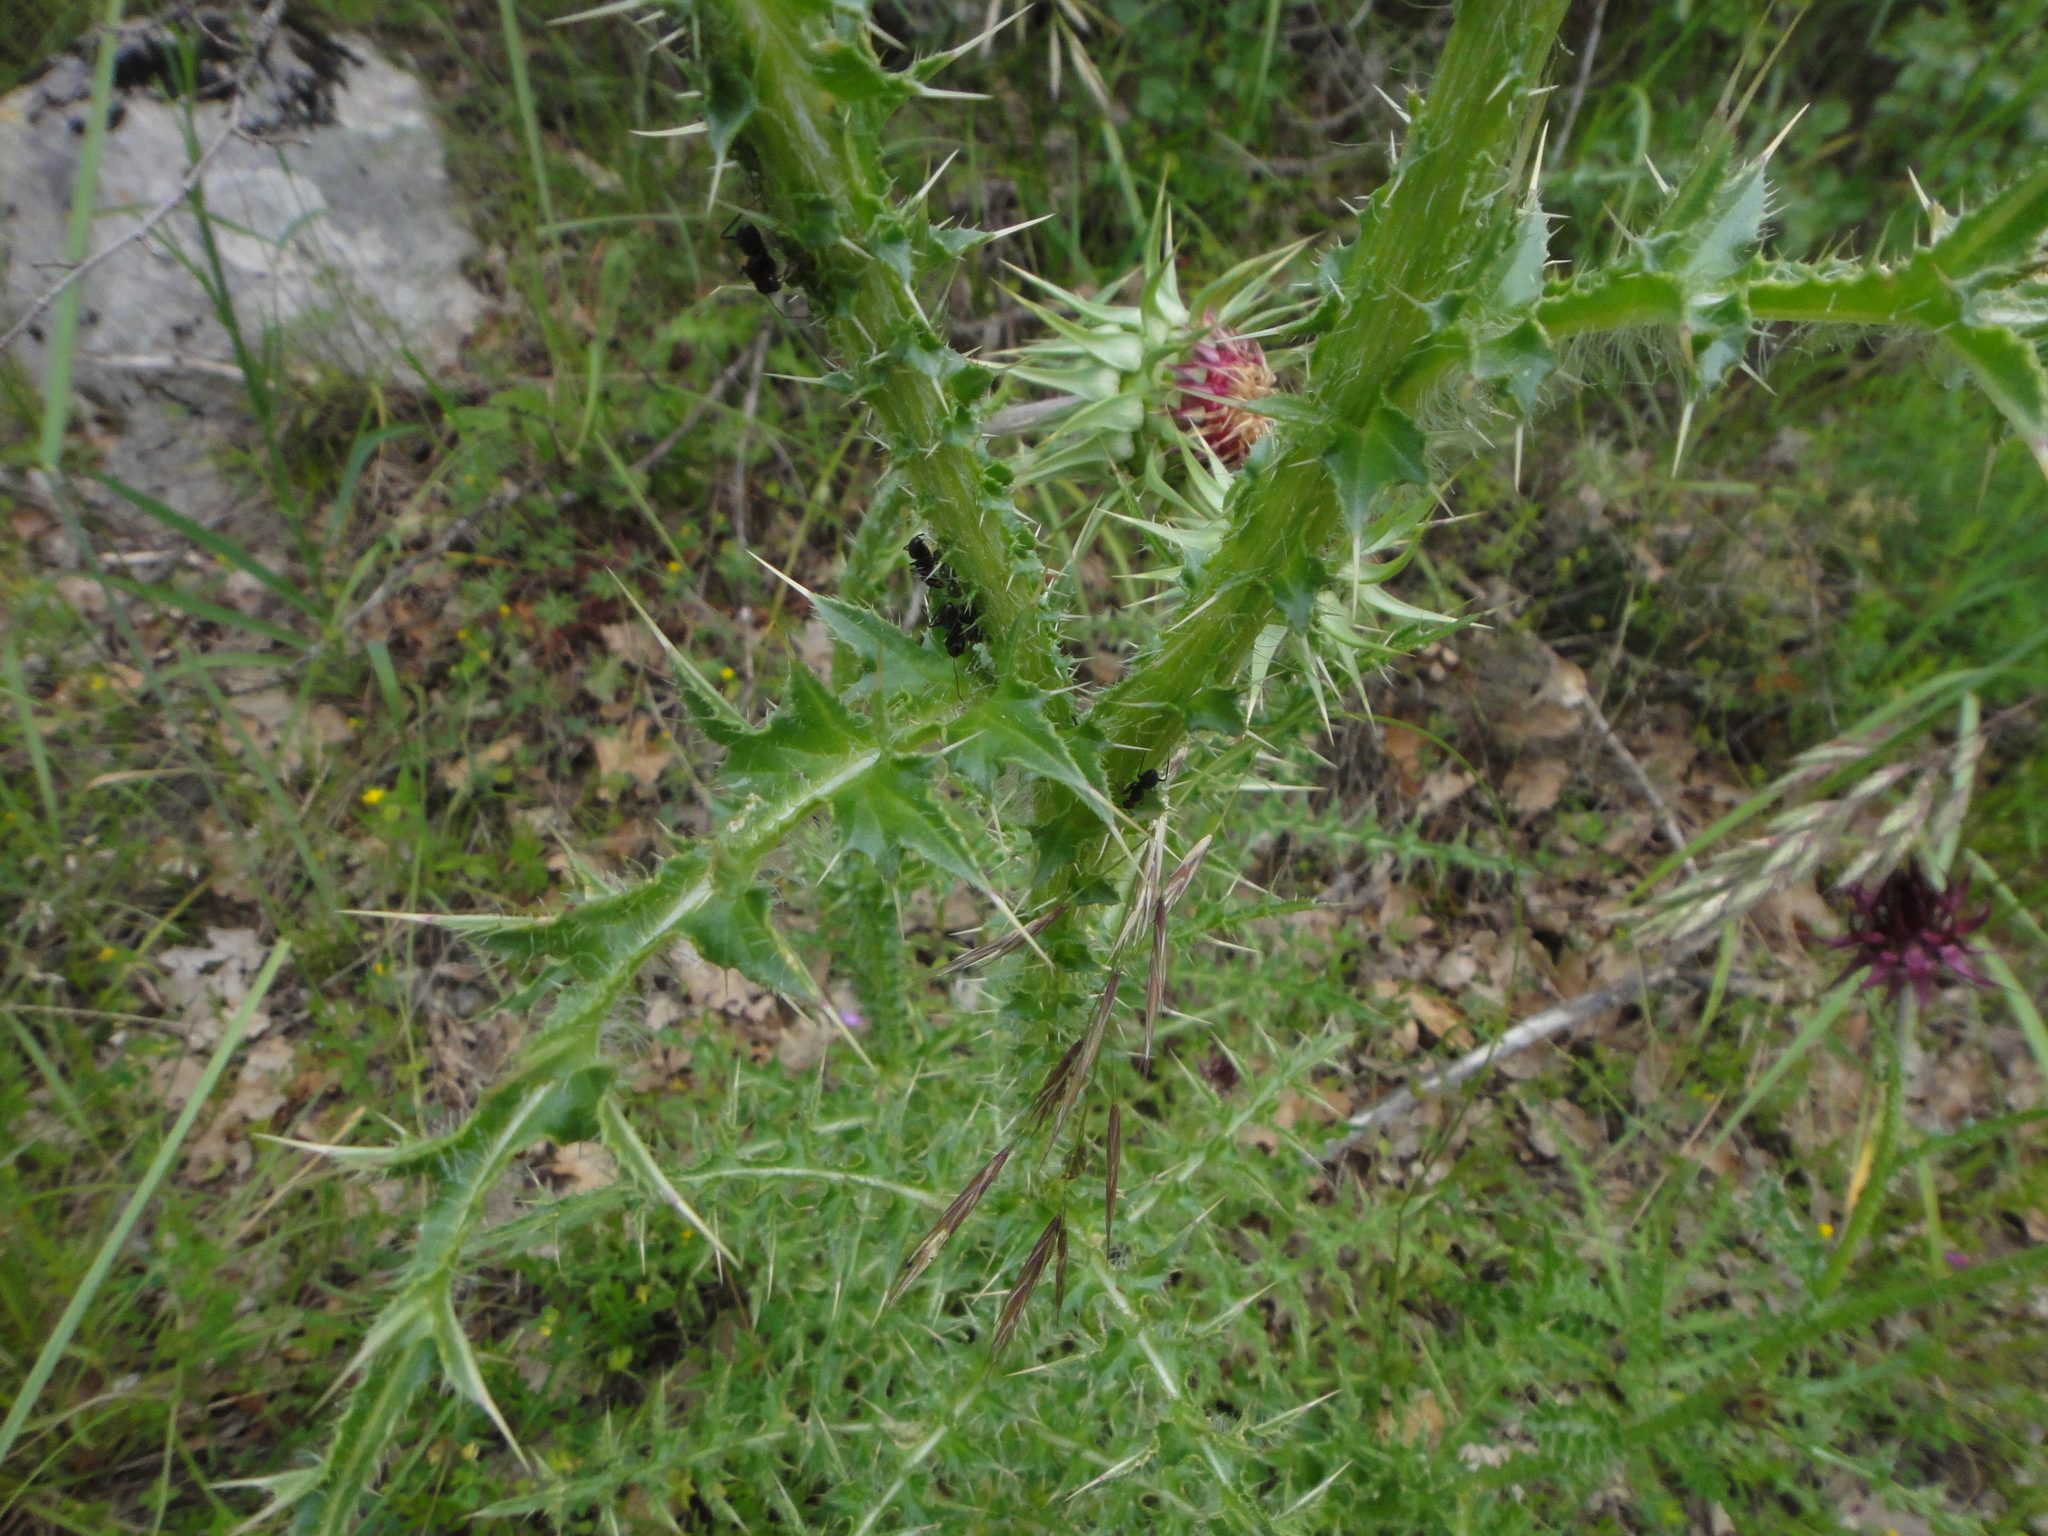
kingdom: Plantae
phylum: Tracheophyta
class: Magnoliopsida
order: Asterales
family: Asteraceae
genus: Carduus
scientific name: Carduus nutans
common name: Musk thistle
